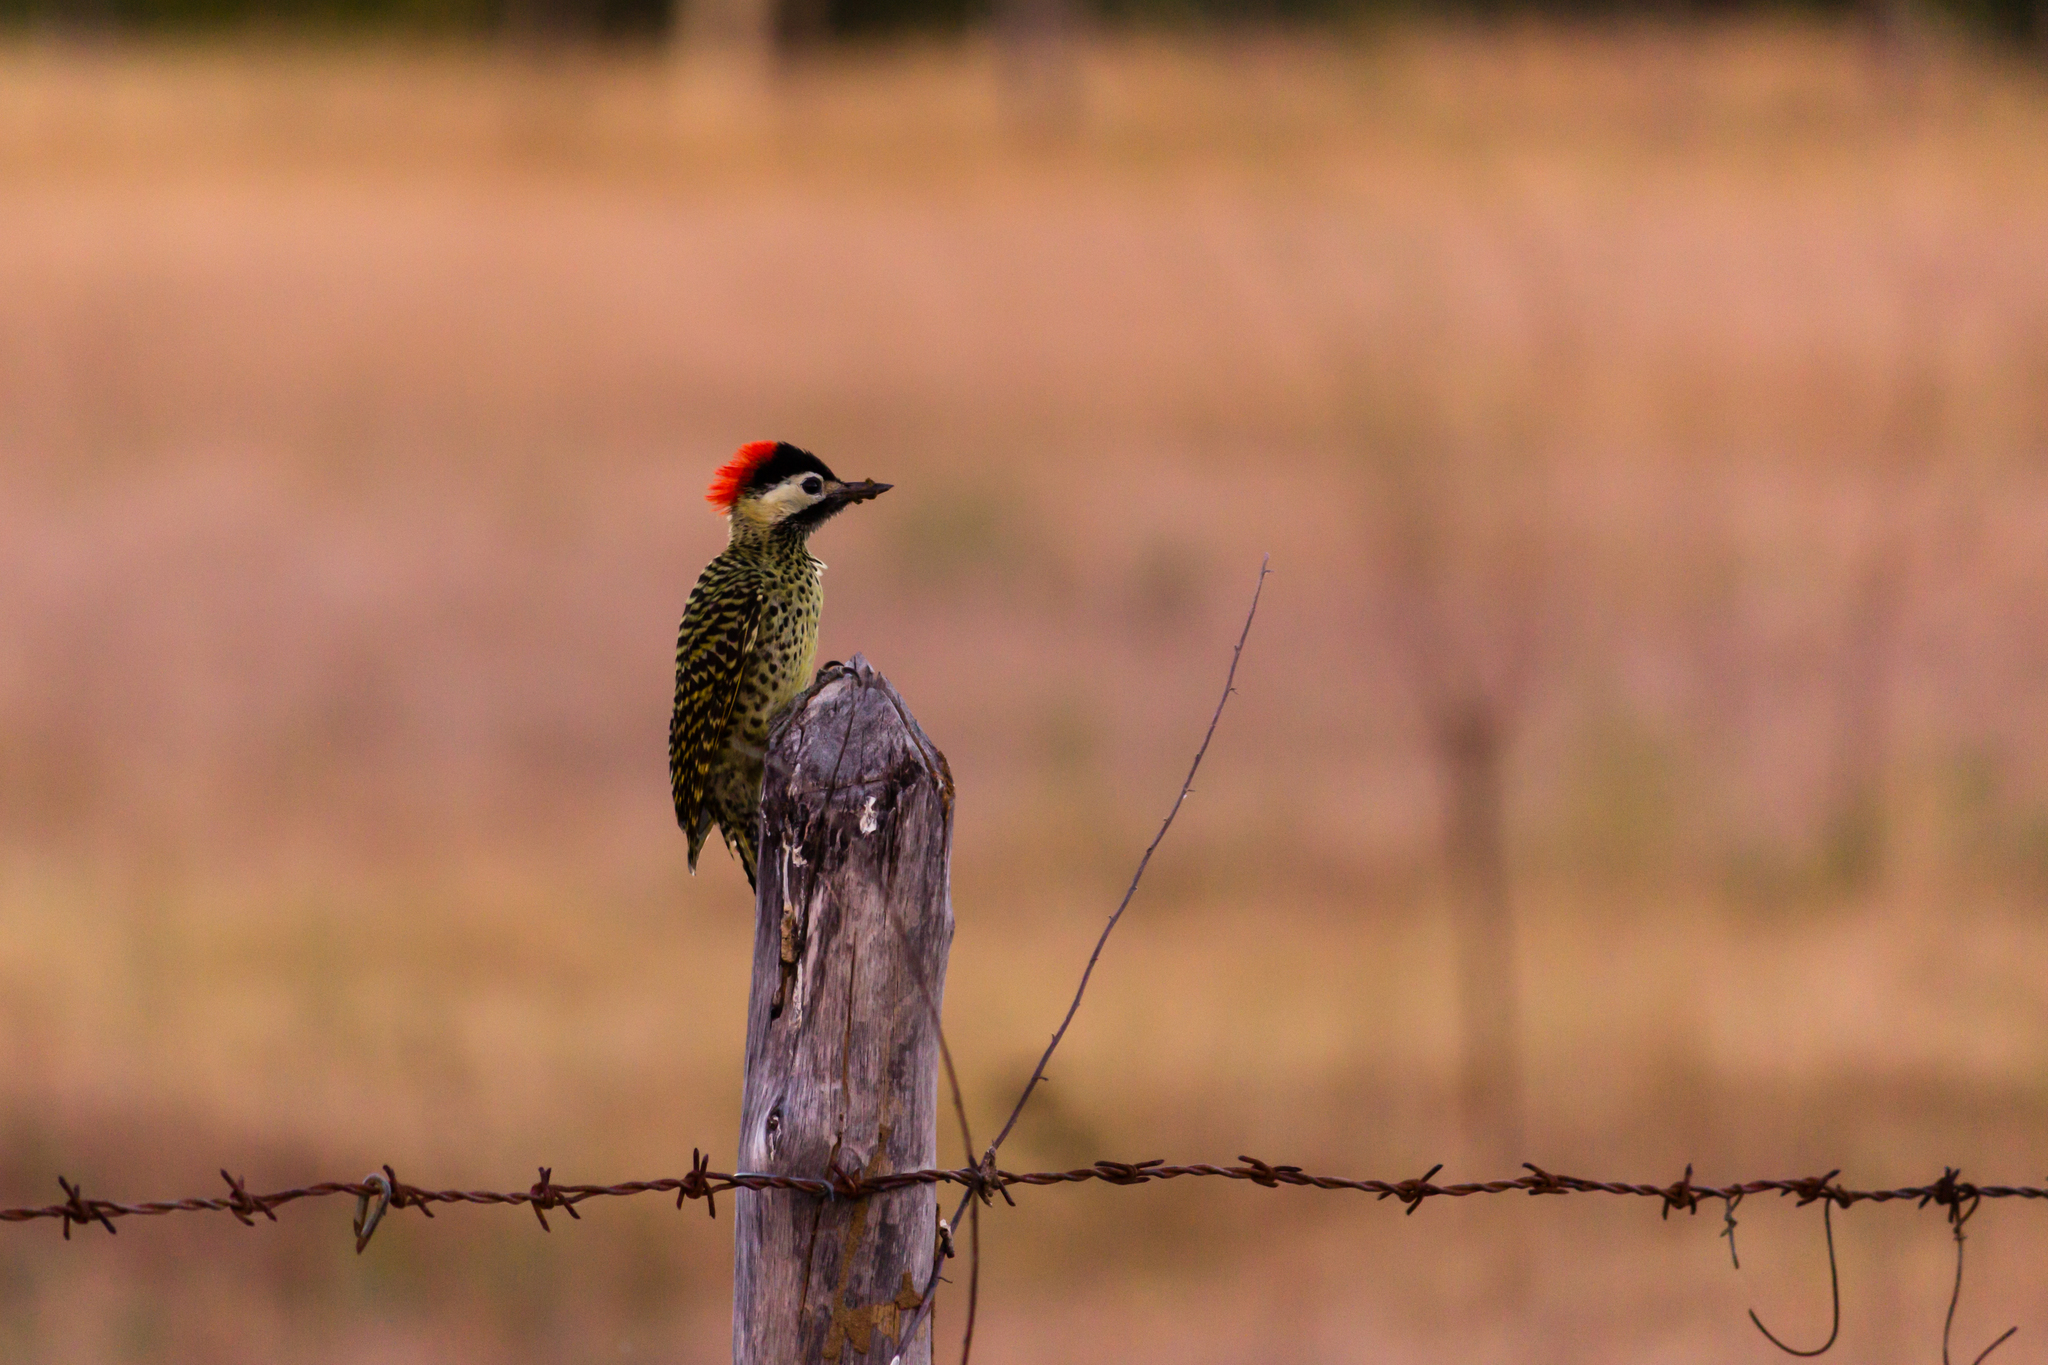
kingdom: Animalia
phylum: Chordata
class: Aves
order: Piciformes
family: Picidae
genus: Colaptes
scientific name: Colaptes melanochloros
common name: Green-barred woodpecker
